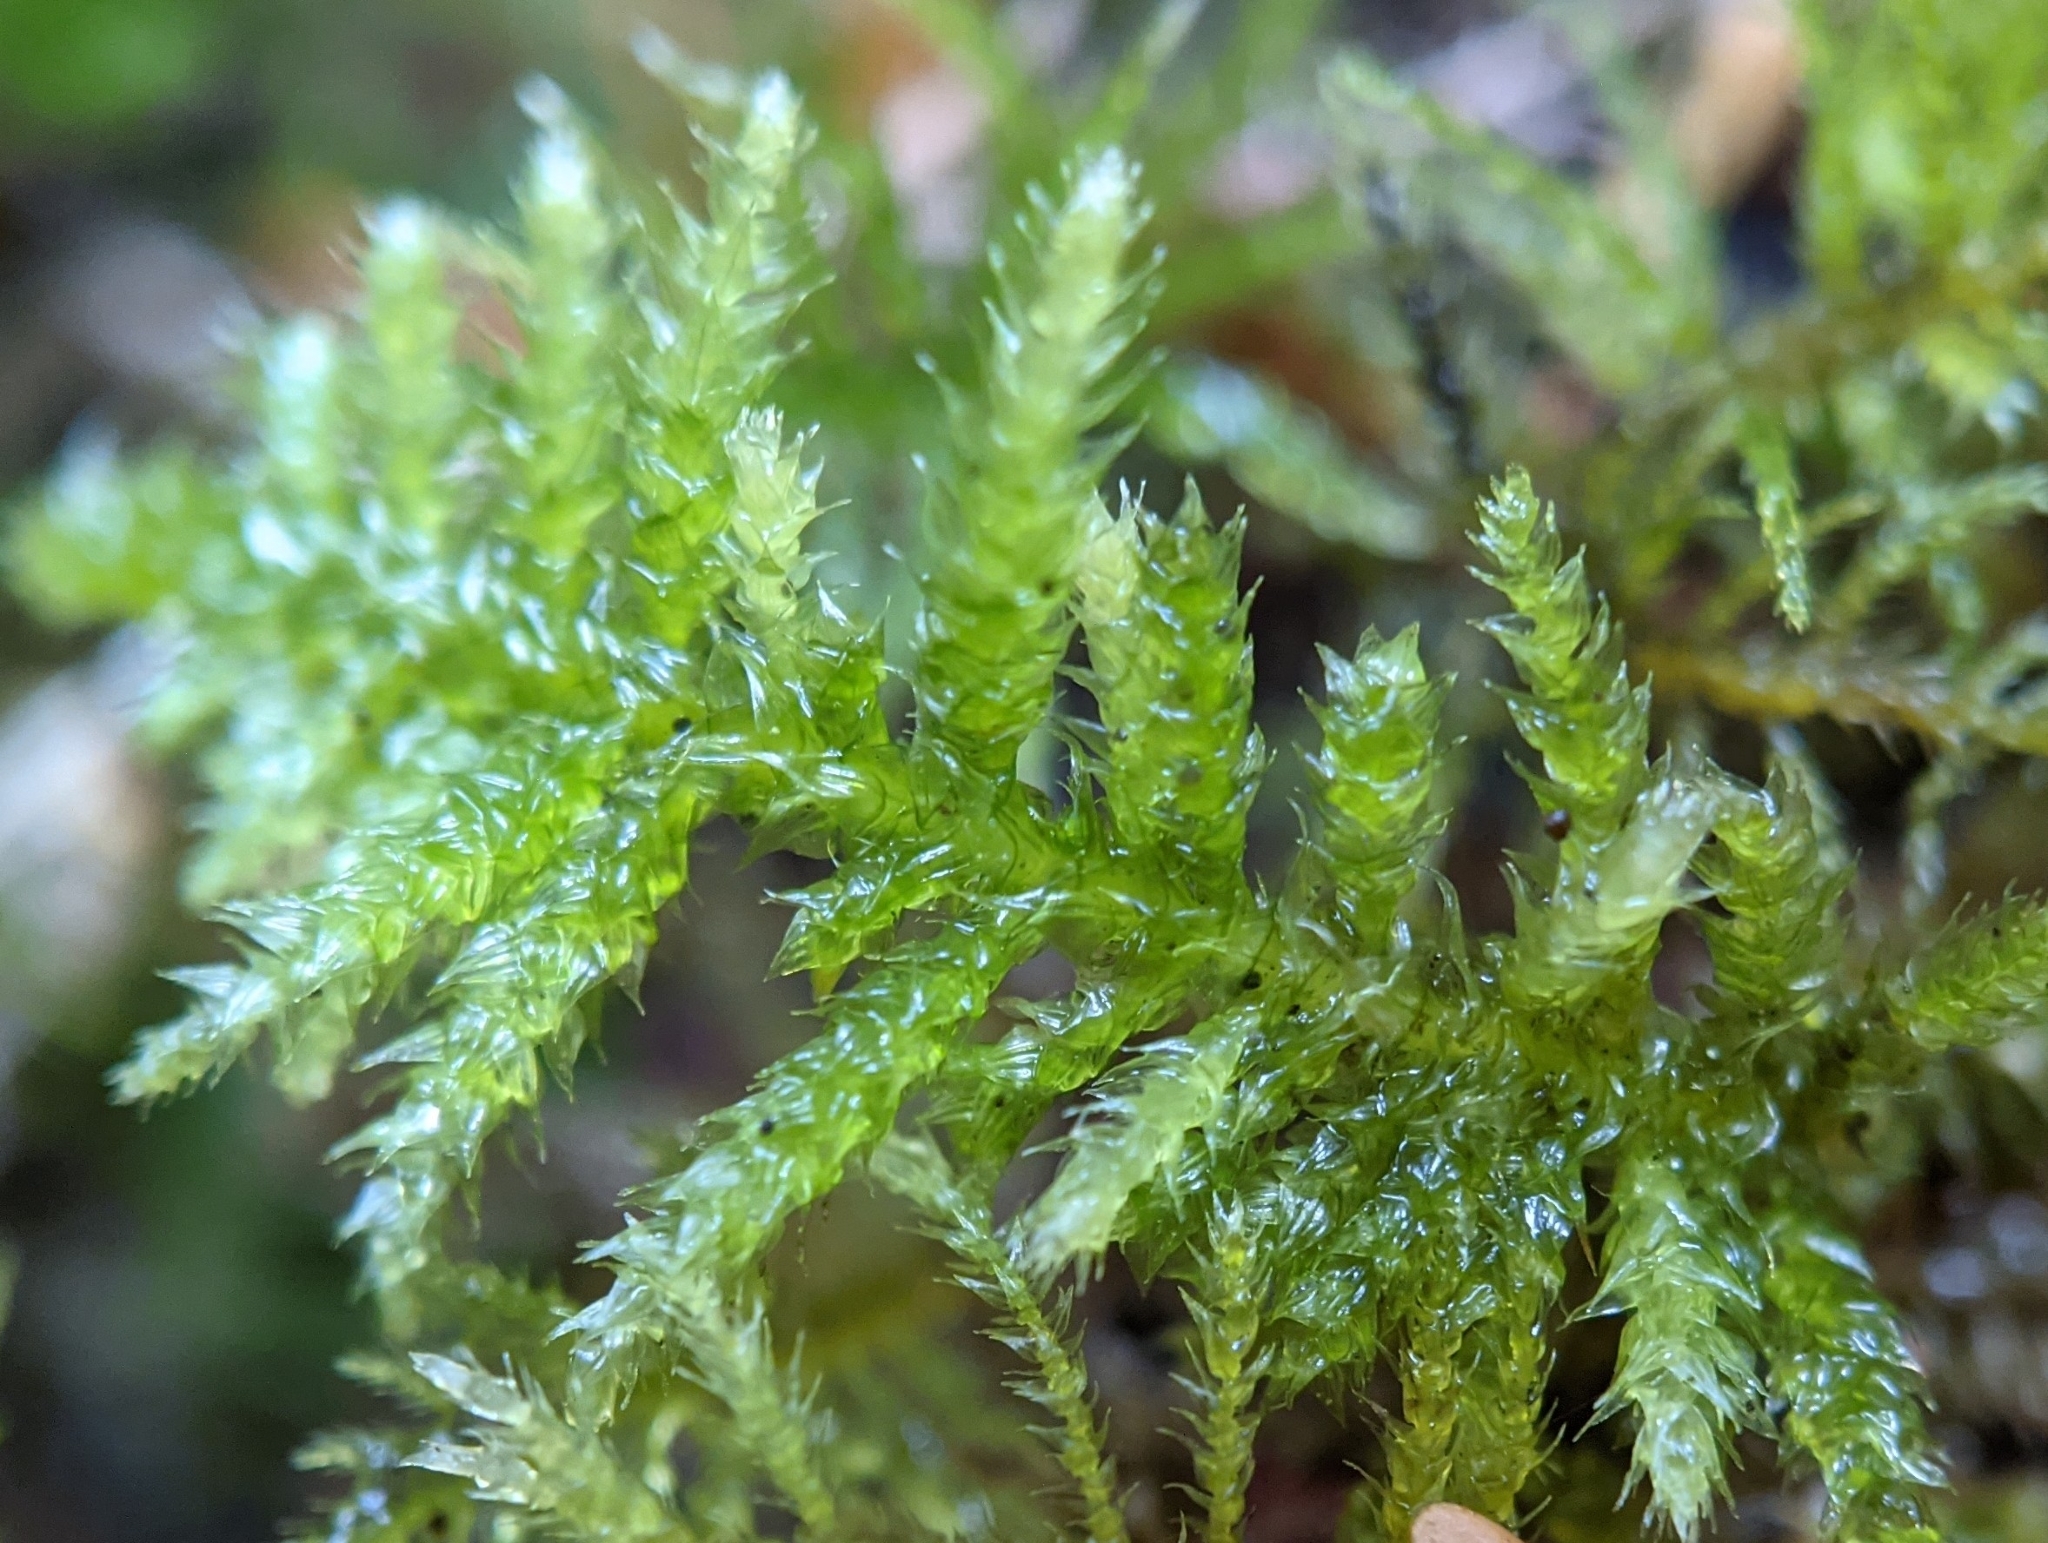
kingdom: Plantae
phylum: Bryophyta
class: Bryopsida
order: Hypnales
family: Brachytheciaceae
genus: Kindbergia
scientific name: Kindbergia oregana
